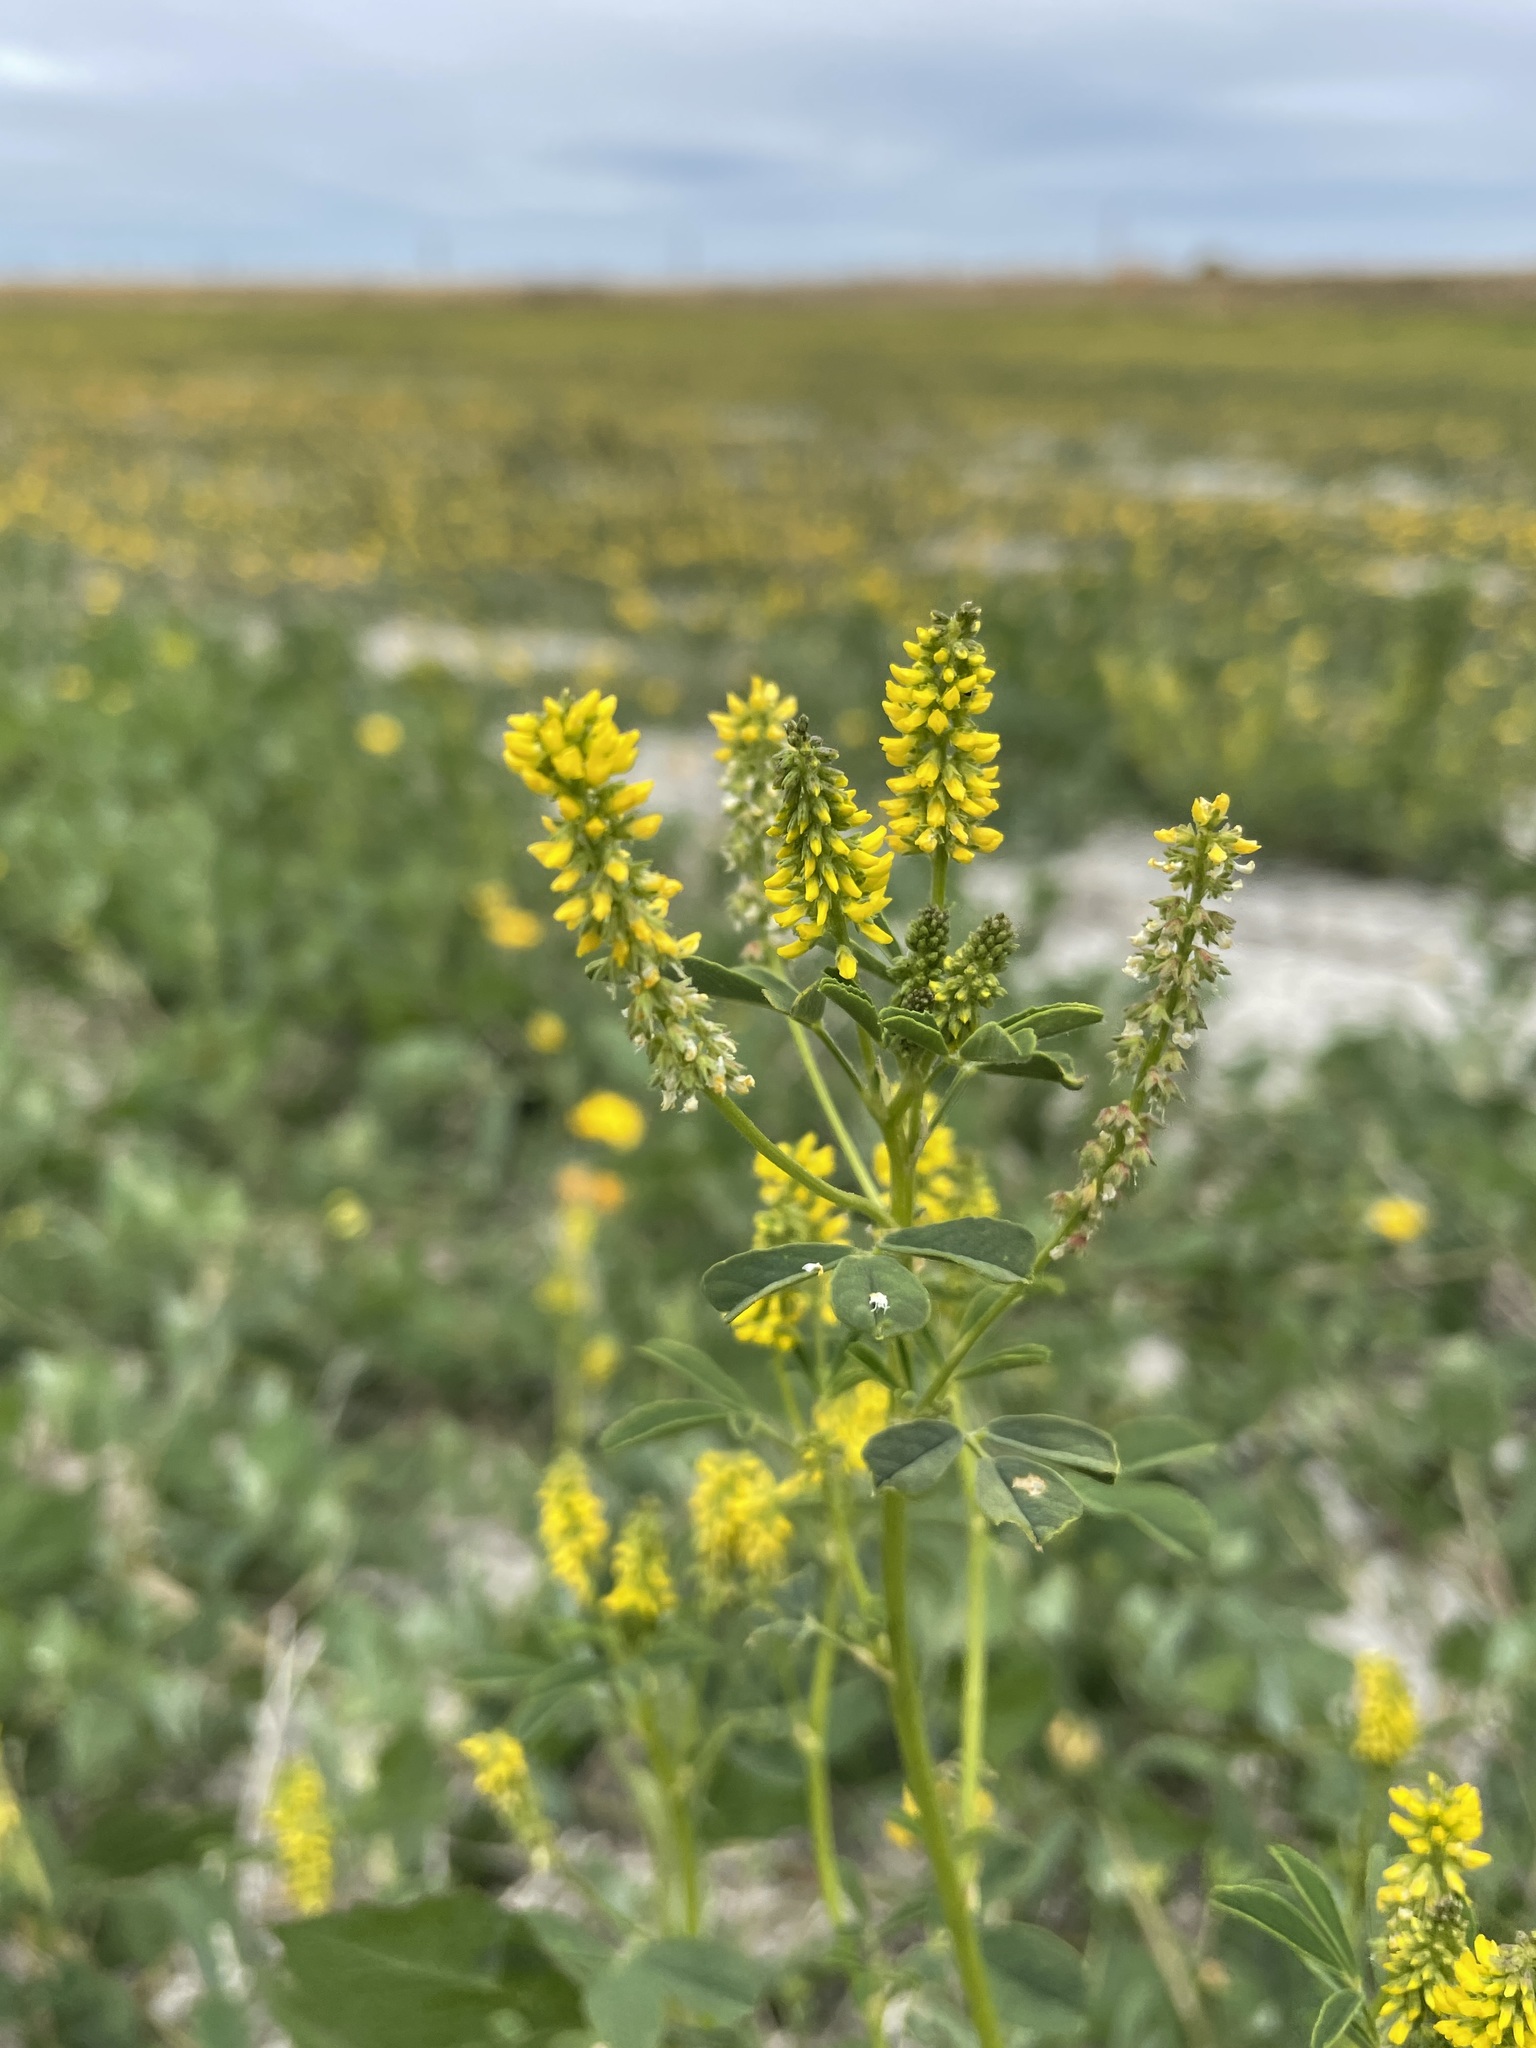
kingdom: Plantae
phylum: Tracheophyta
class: Magnoliopsida
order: Fabales
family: Fabaceae
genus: Melilotus
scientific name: Melilotus indicus
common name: Small melilot
